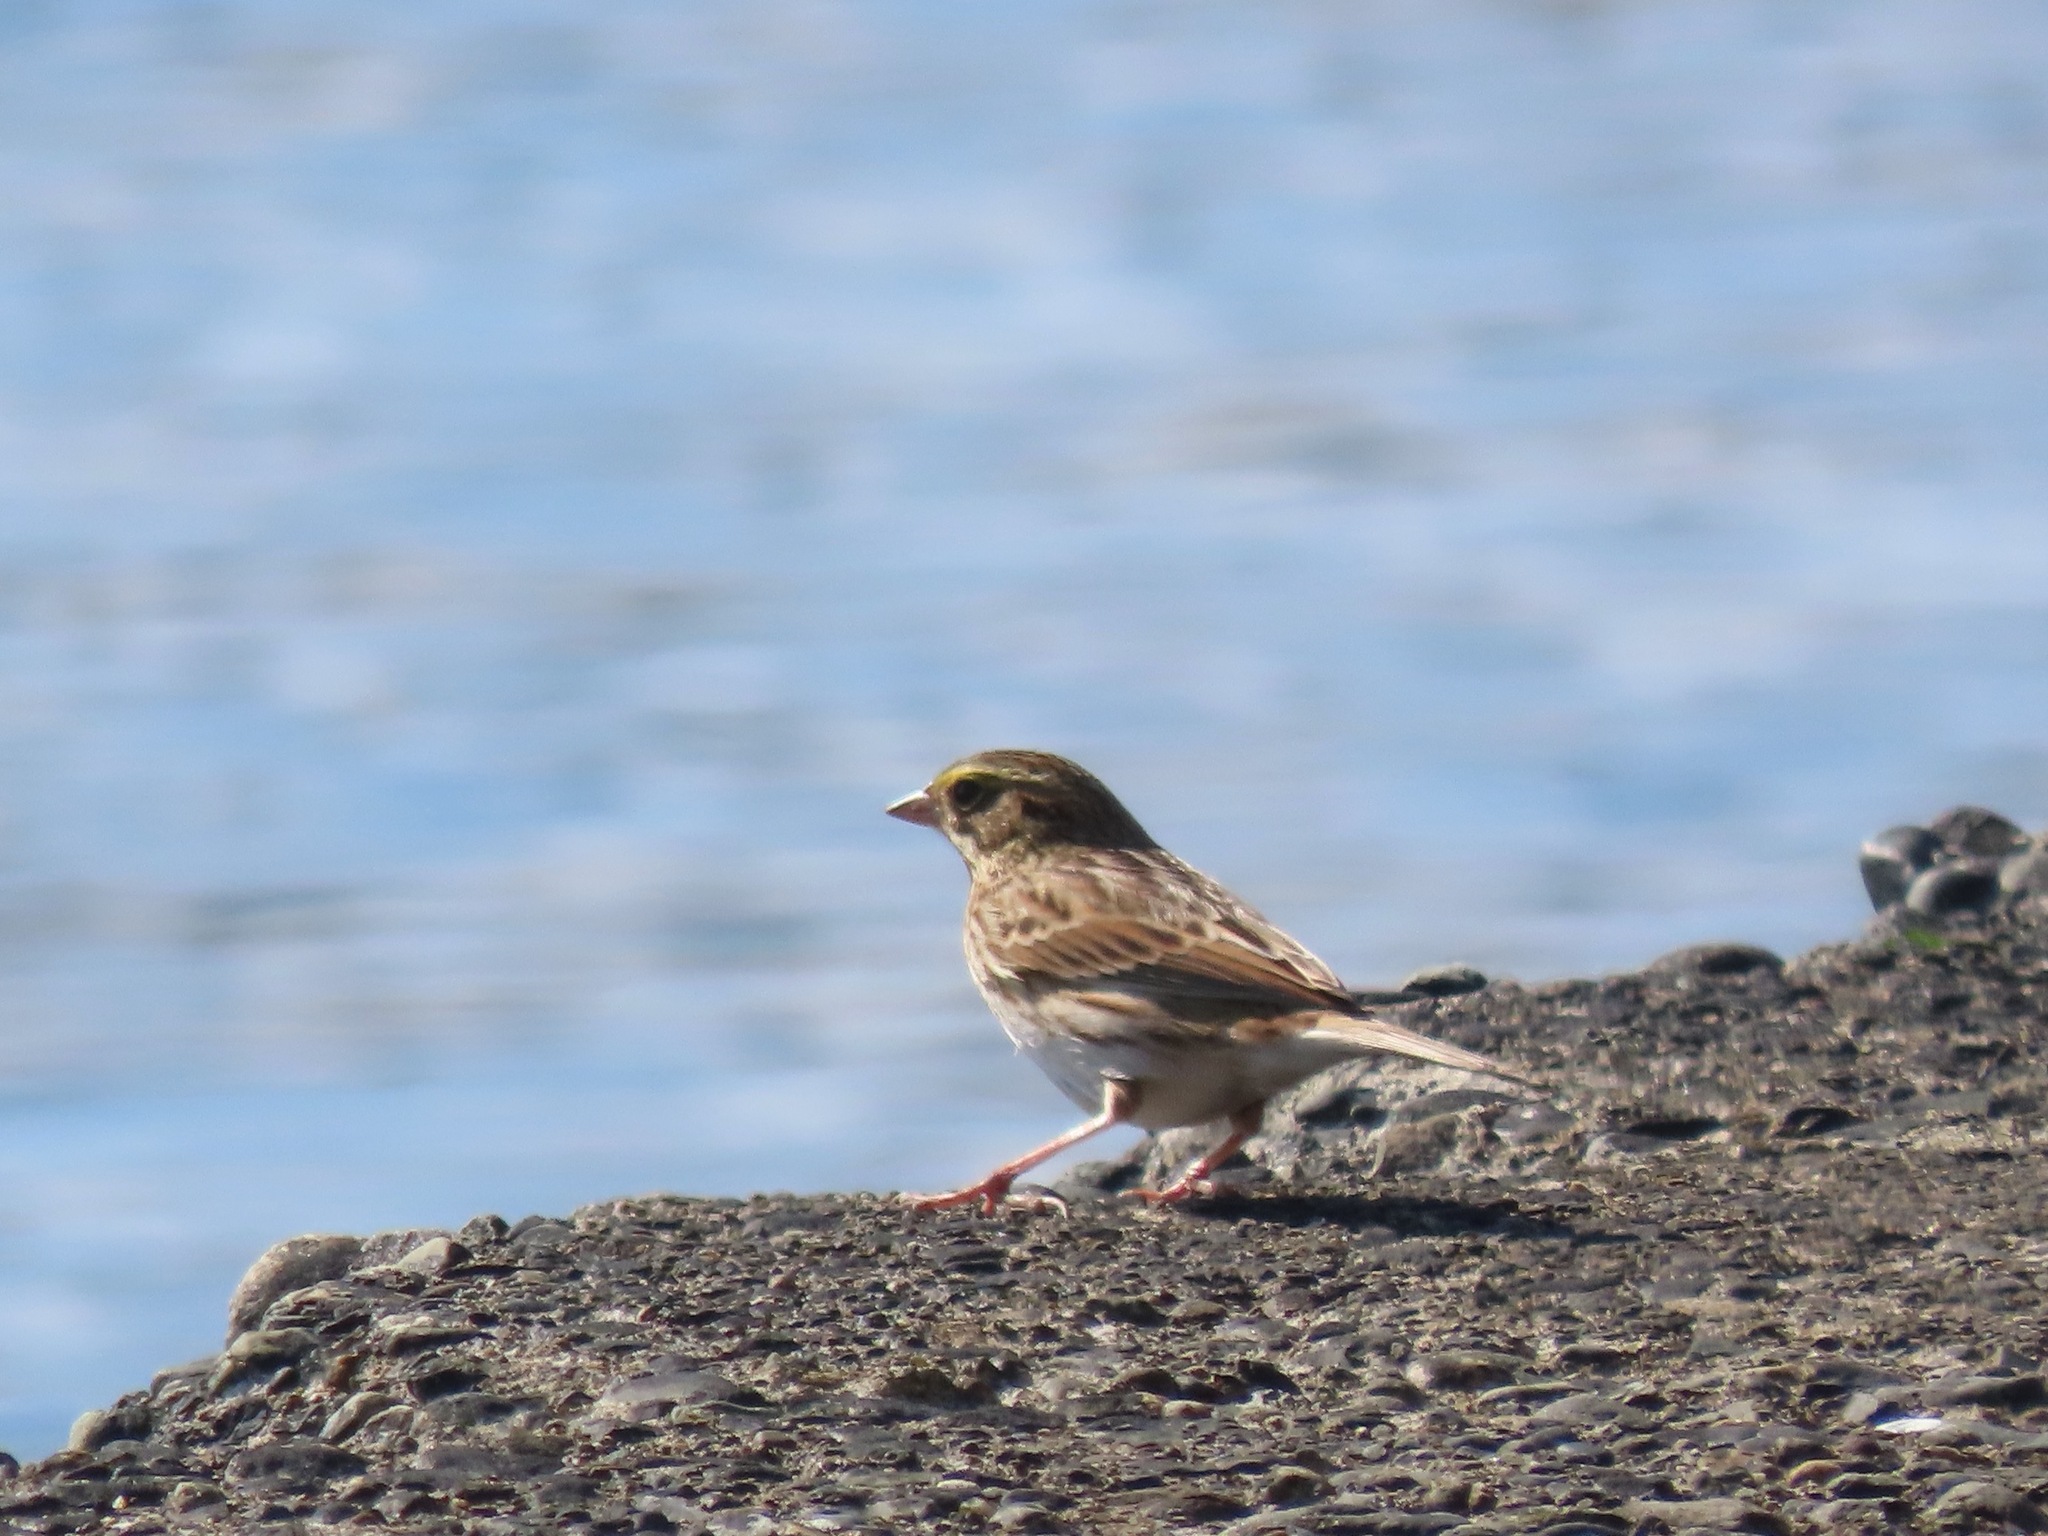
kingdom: Animalia
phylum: Chordata
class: Aves
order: Passeriformes
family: Passerellidae
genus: Passerculus
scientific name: Passerculus sandwichensis
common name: Savannah sparrow
